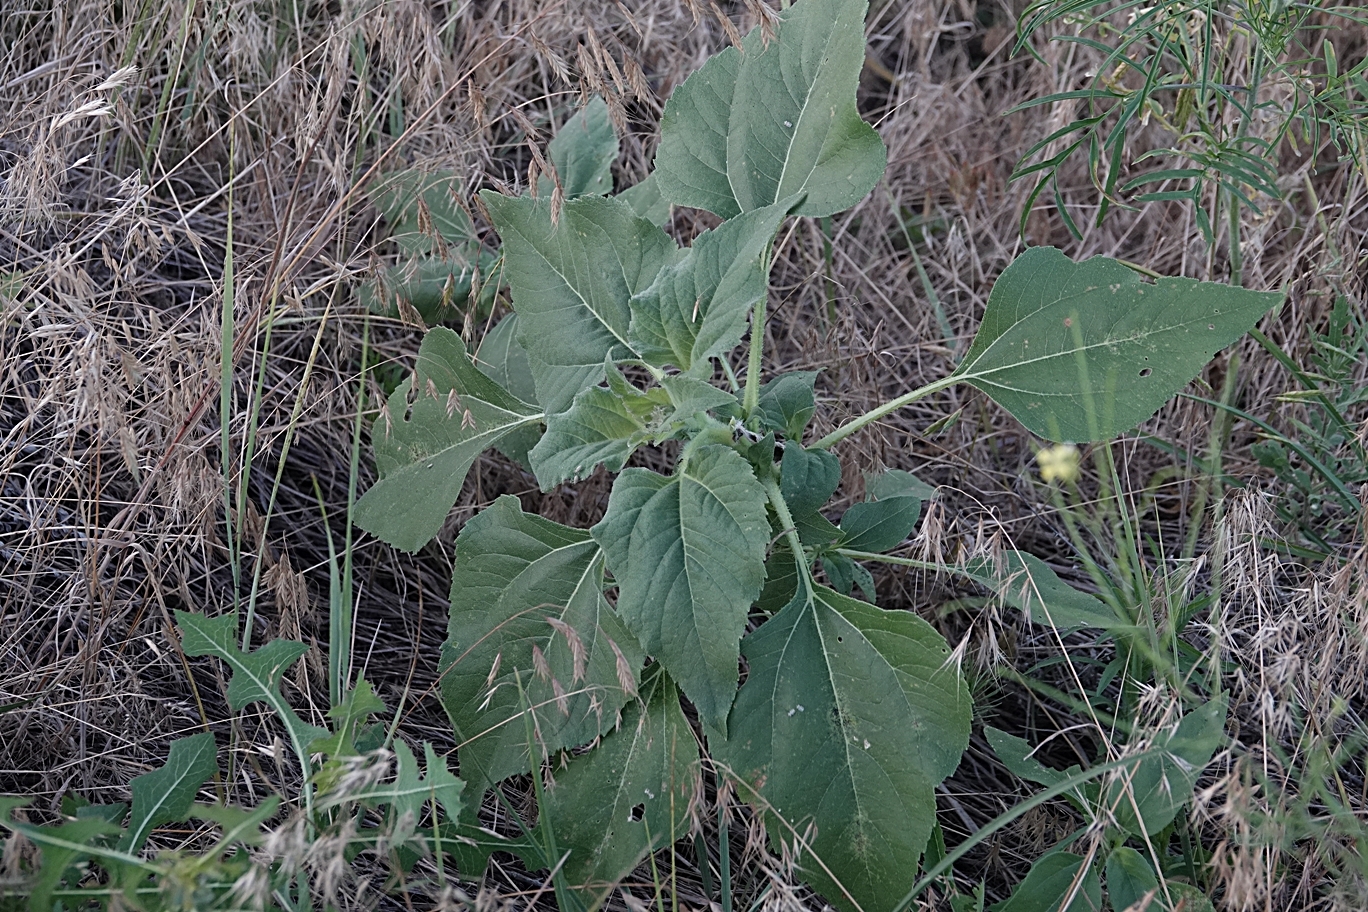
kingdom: Plantae
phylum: Tracheophyta
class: Magnoliopsida
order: Asterales
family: Asteraceae
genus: Helianthus
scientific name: Helianthus annuus
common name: Sunflower
